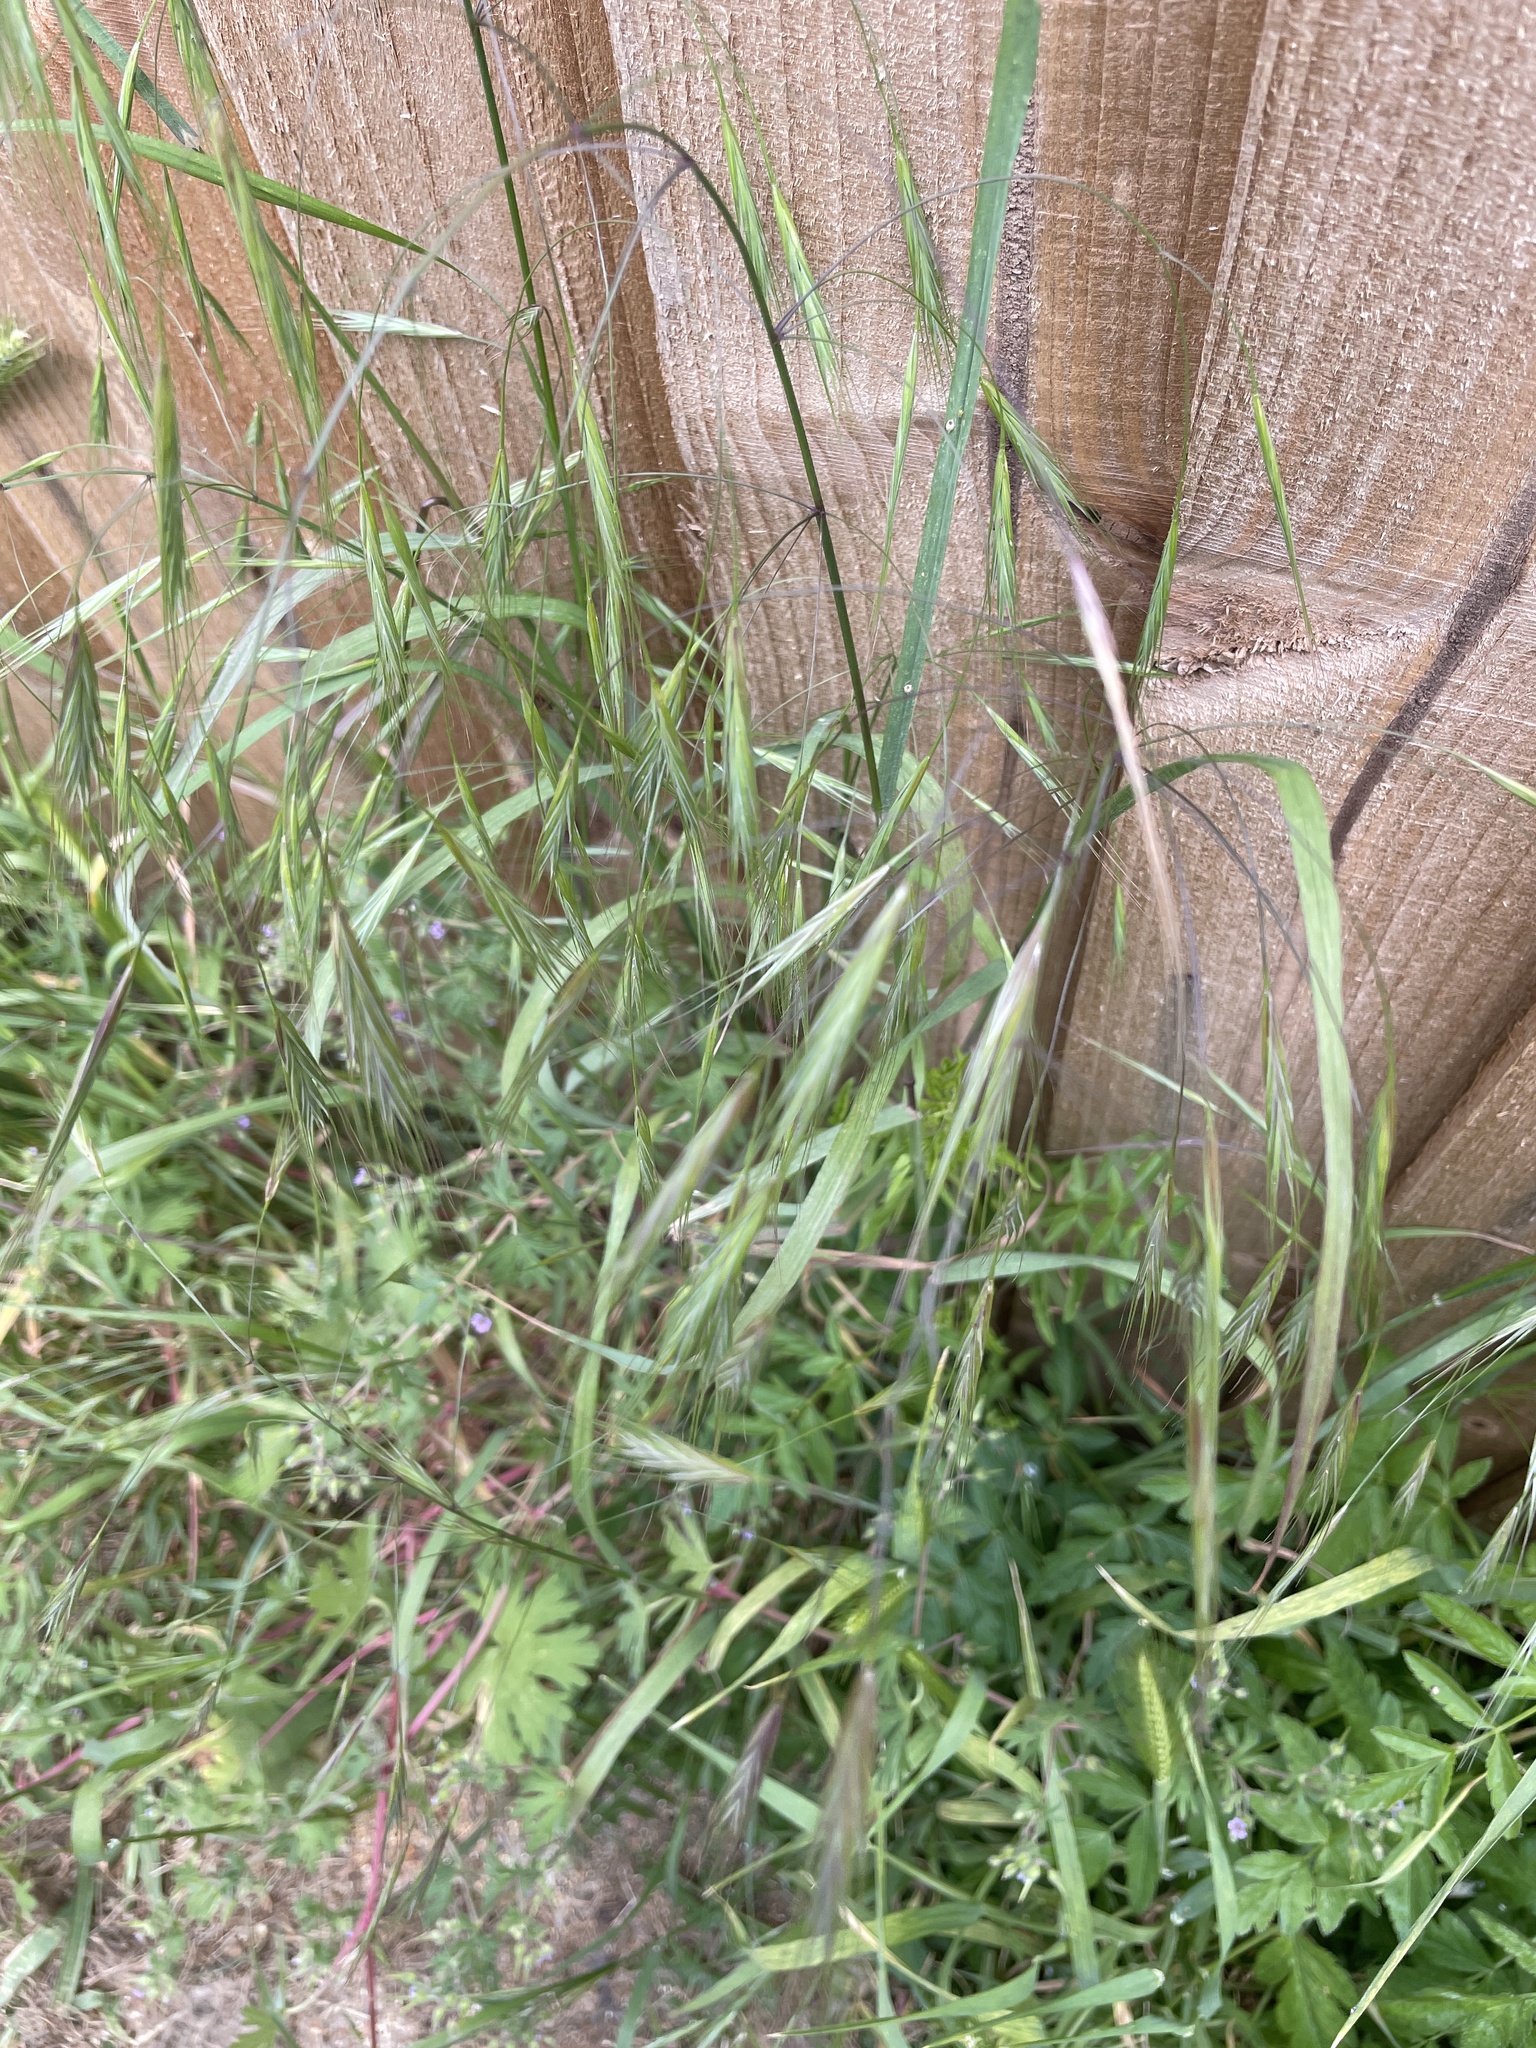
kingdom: Plantae
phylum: Tracheophyta
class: Liliopsida
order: Poales
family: Poaceae
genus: Bromus
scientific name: Bromus sterilis
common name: Poverty brome
